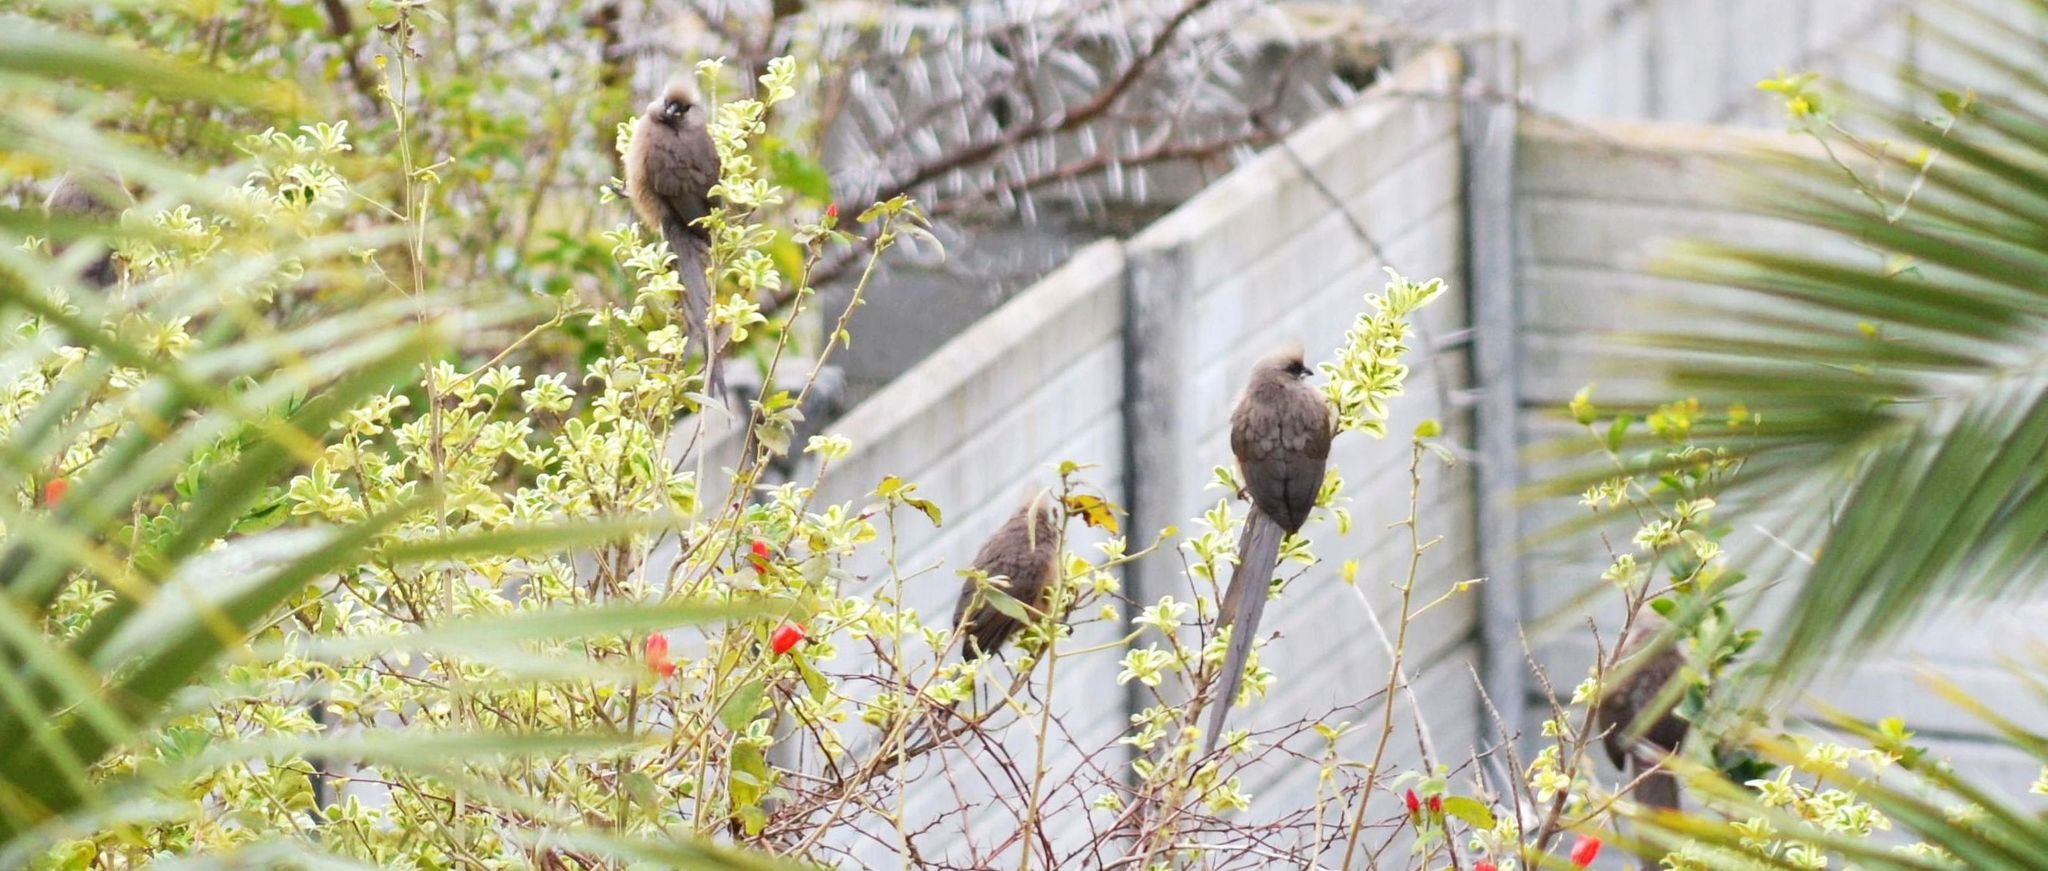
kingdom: Animalia
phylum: Chordata
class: Aves
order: Coliiformes
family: Coliidae
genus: Colius
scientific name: Colius striatus
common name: Speckled mousebird
